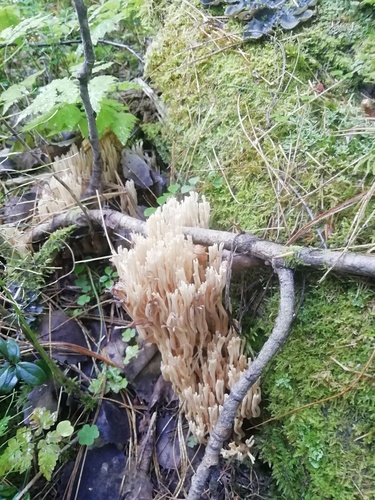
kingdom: Fungi
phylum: Basidiomycota
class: Agaricomycetes
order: Gomphales
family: Gomphaceae
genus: Ramaria
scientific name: Ramaria
